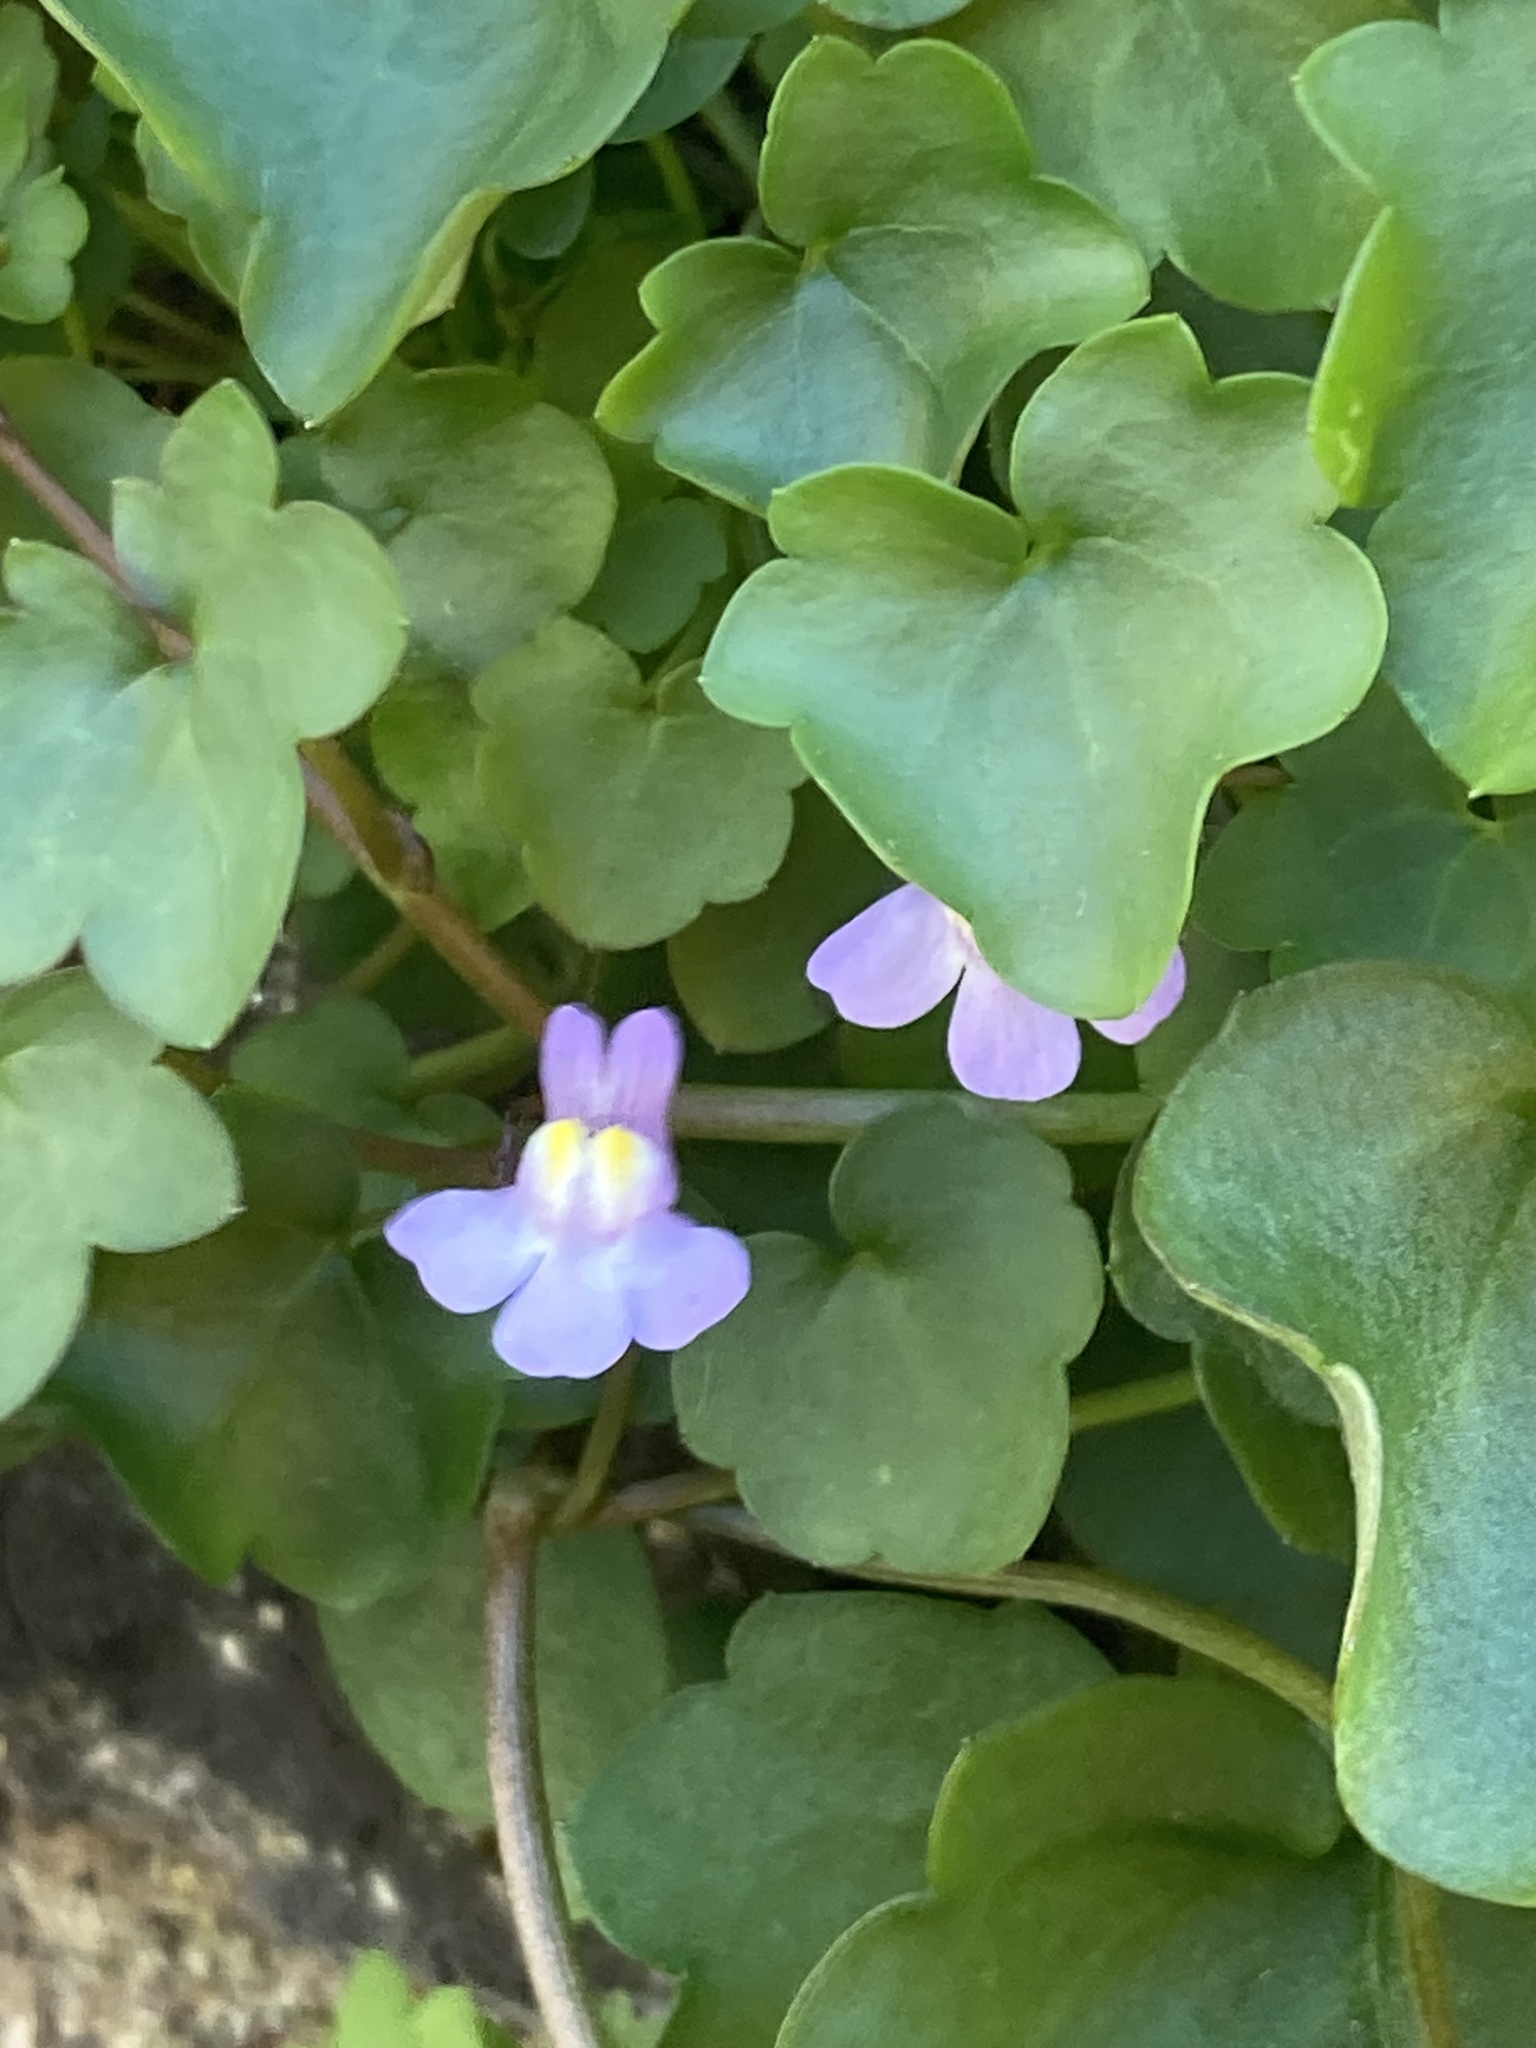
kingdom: Plantae
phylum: Tracheophyta
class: Magnoliopsida
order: Lamiales
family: Plantaginaceae
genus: Cymbalaria
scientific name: Cymbalaria muralis
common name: Ivy-leaved toadflax
